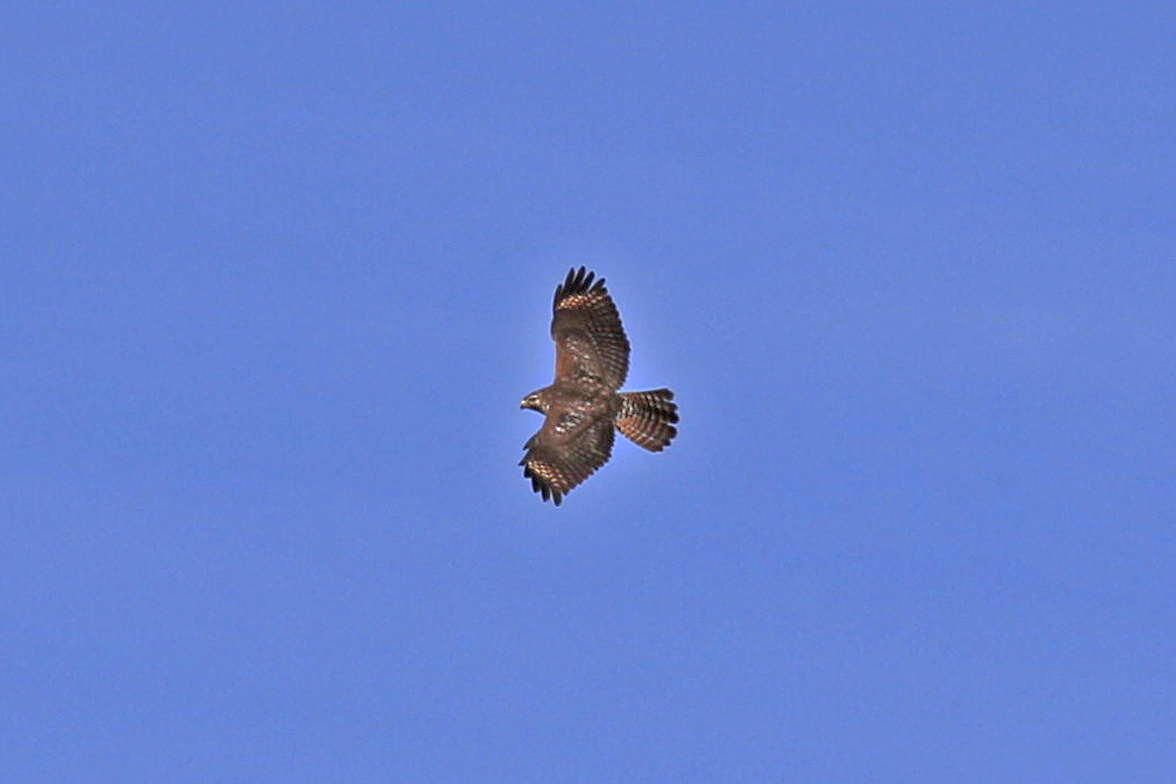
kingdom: Animalia
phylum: Chordata
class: Aves
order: Accipitriformes
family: Accipitridae
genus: Buteo
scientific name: Buteo lineatus
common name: Red-shouldered hawk
